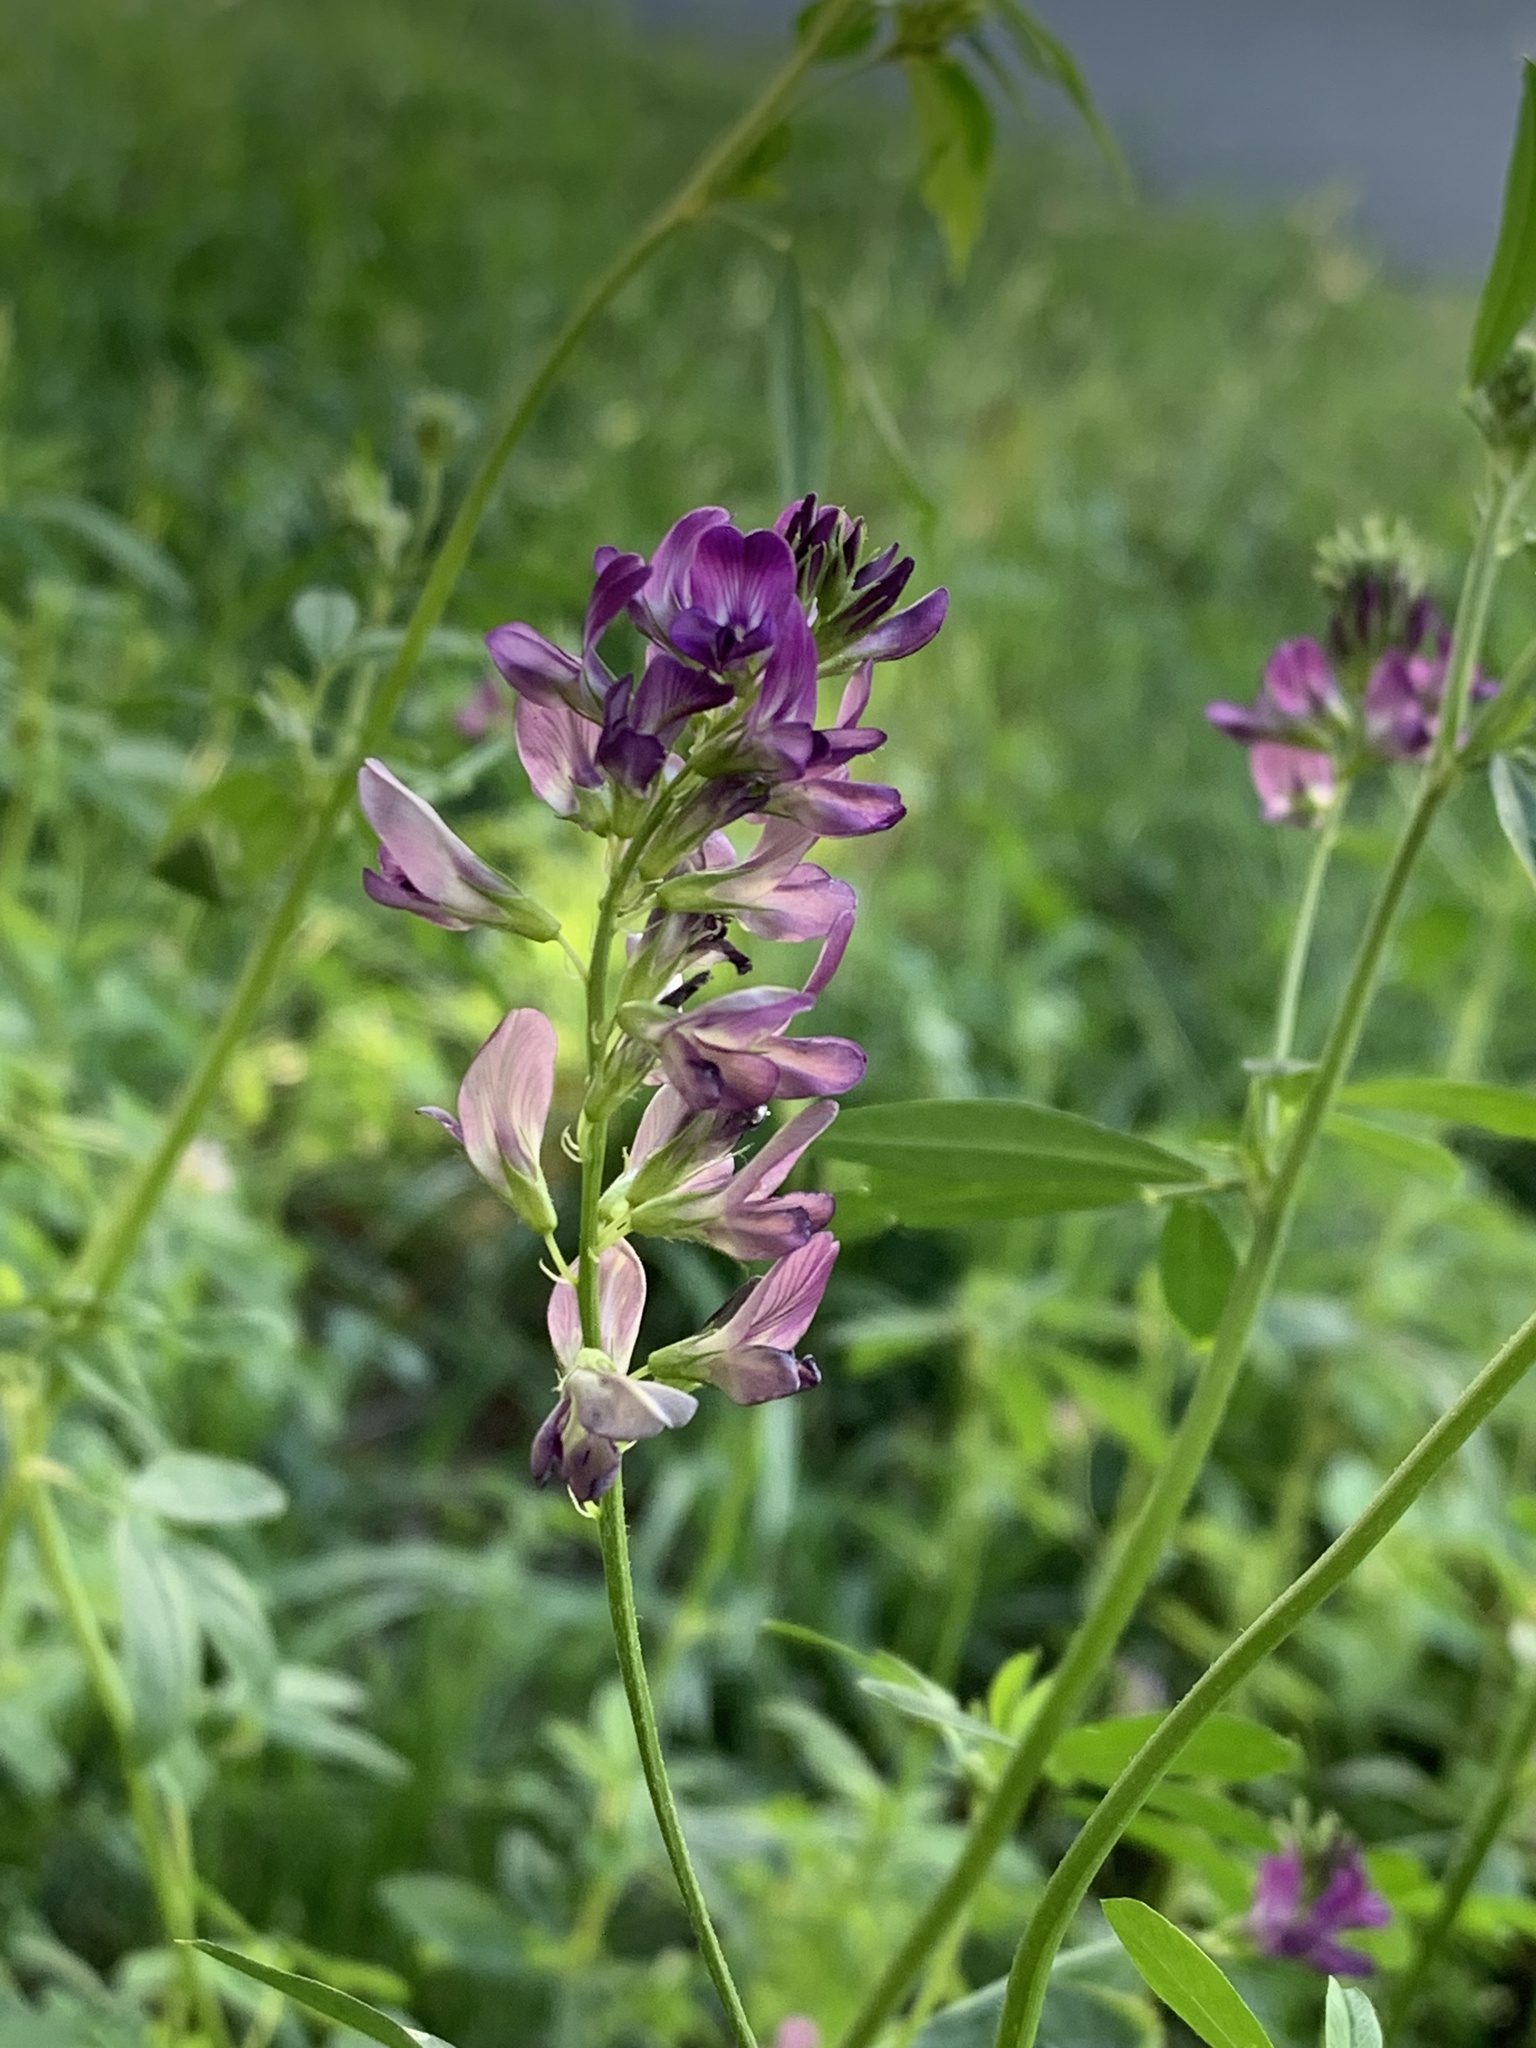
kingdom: Plantae
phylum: Tracheophyta
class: Magnoliopsida
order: Fabales
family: Fabaceae
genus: Medicago
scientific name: Medicago sativa
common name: Alfalfa
